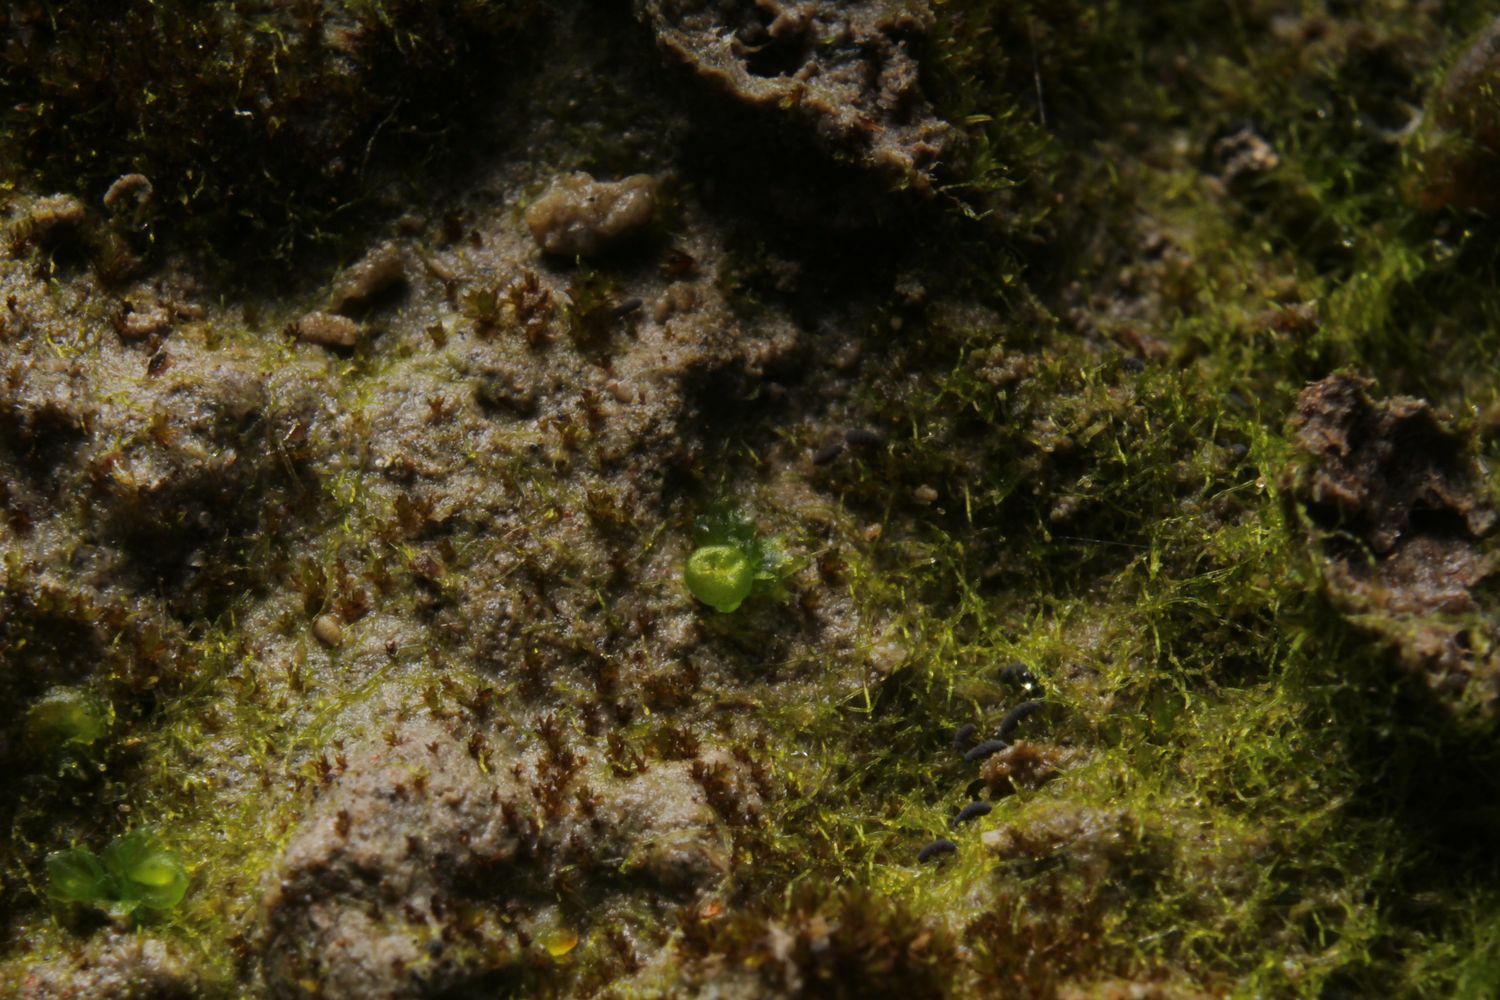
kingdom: Plantae
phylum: Marchantiophyta
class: Marchantiopsida
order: Sphaerocarpales
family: Riellaceae
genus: Austroriella
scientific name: Austroriella salta
